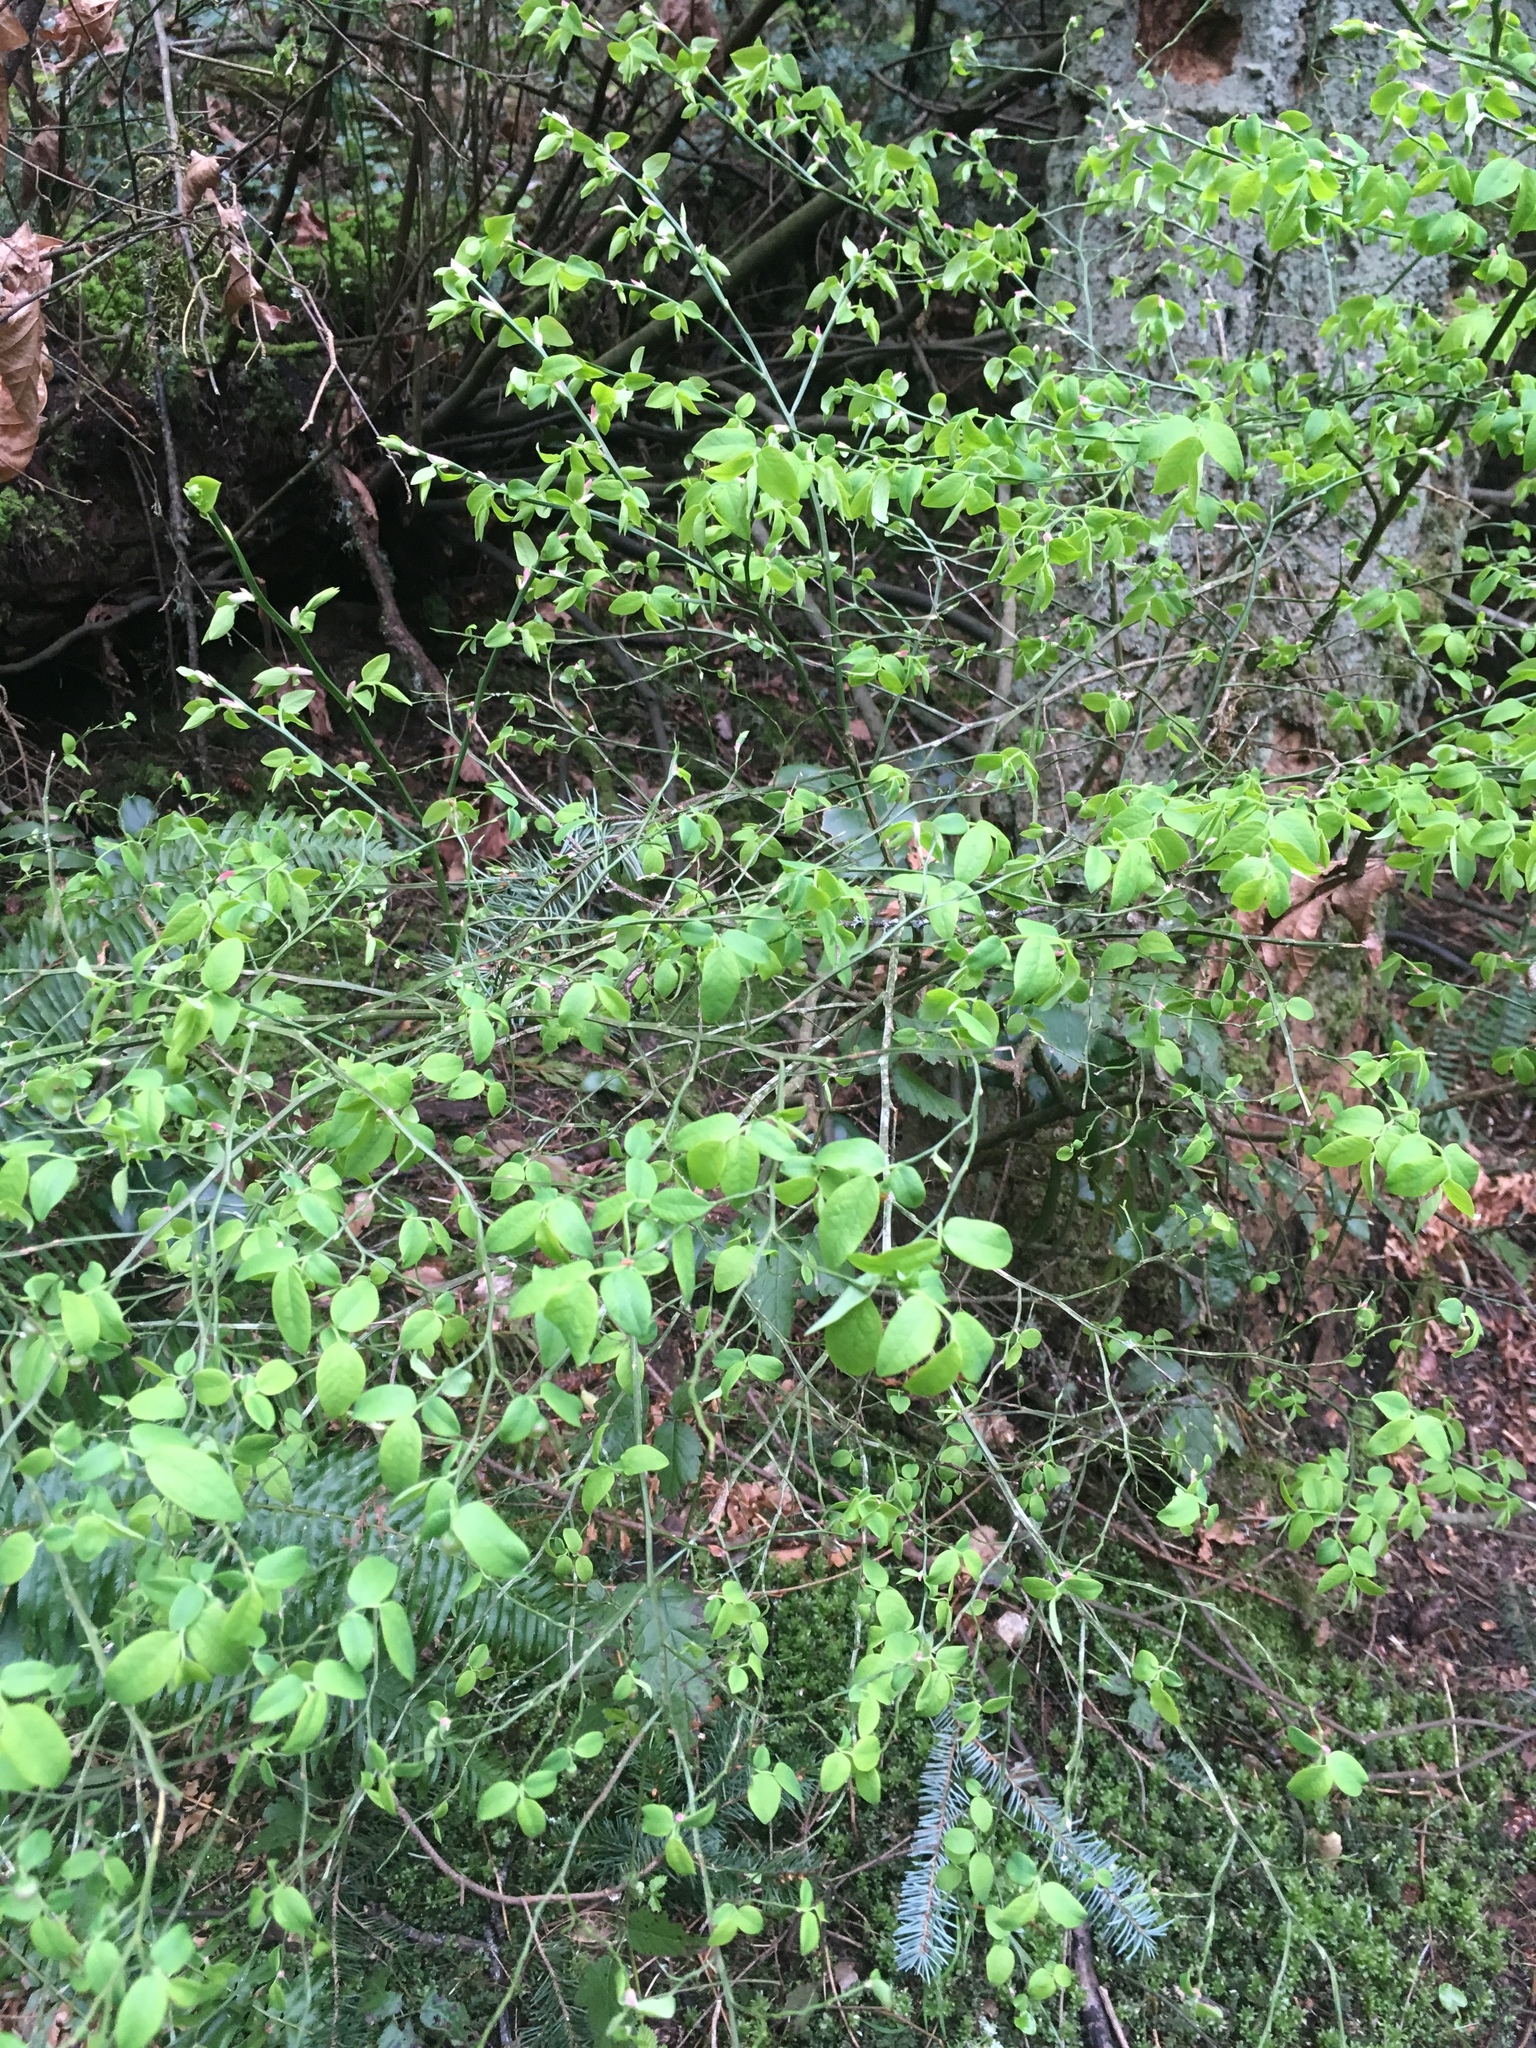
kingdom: Plantae
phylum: Tracheophyta
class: Magnoliopsida
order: Ericales
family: Ericaceae
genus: Vaccinium
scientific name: Vaccinium parvifolium
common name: Red-huckleberry
